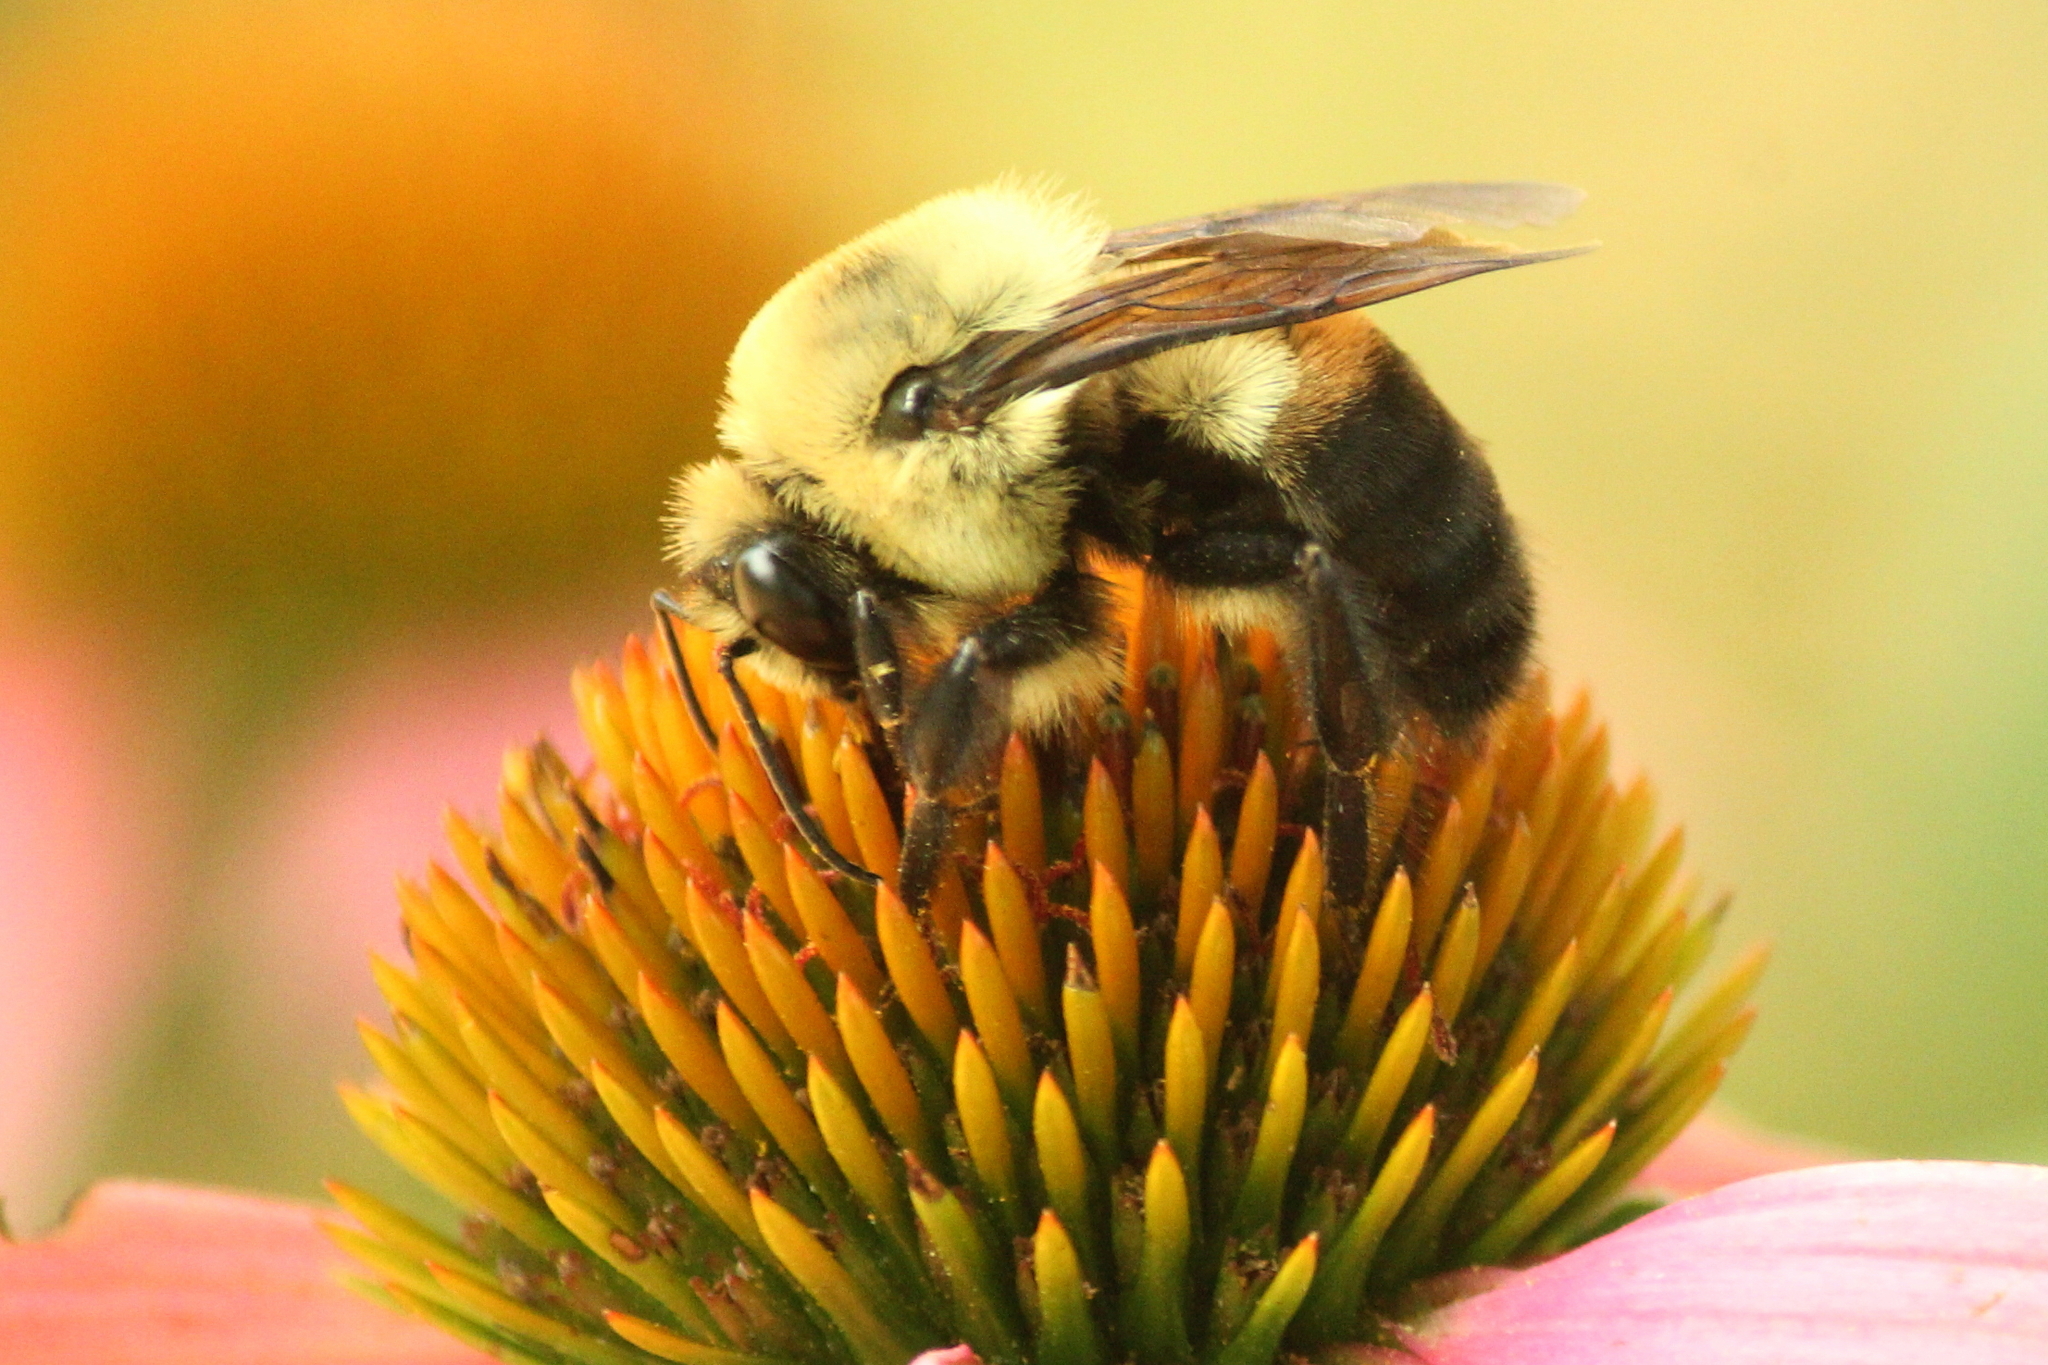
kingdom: Animalia
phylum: Arthropoda
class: Insecta
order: Hymenoptera
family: Apidae
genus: Bombus
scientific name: Bombus griseocollis
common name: Brown-belted bumble bee
